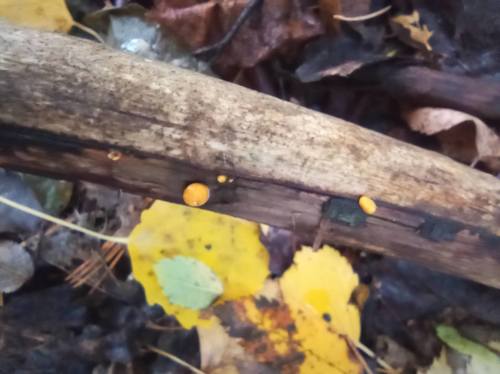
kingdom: Fungi
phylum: Basidiomycota
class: Dacrymycetes
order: Dacrymycetales
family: Dacrymycetaceae
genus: Dacrymyces
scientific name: Dacrymyces
